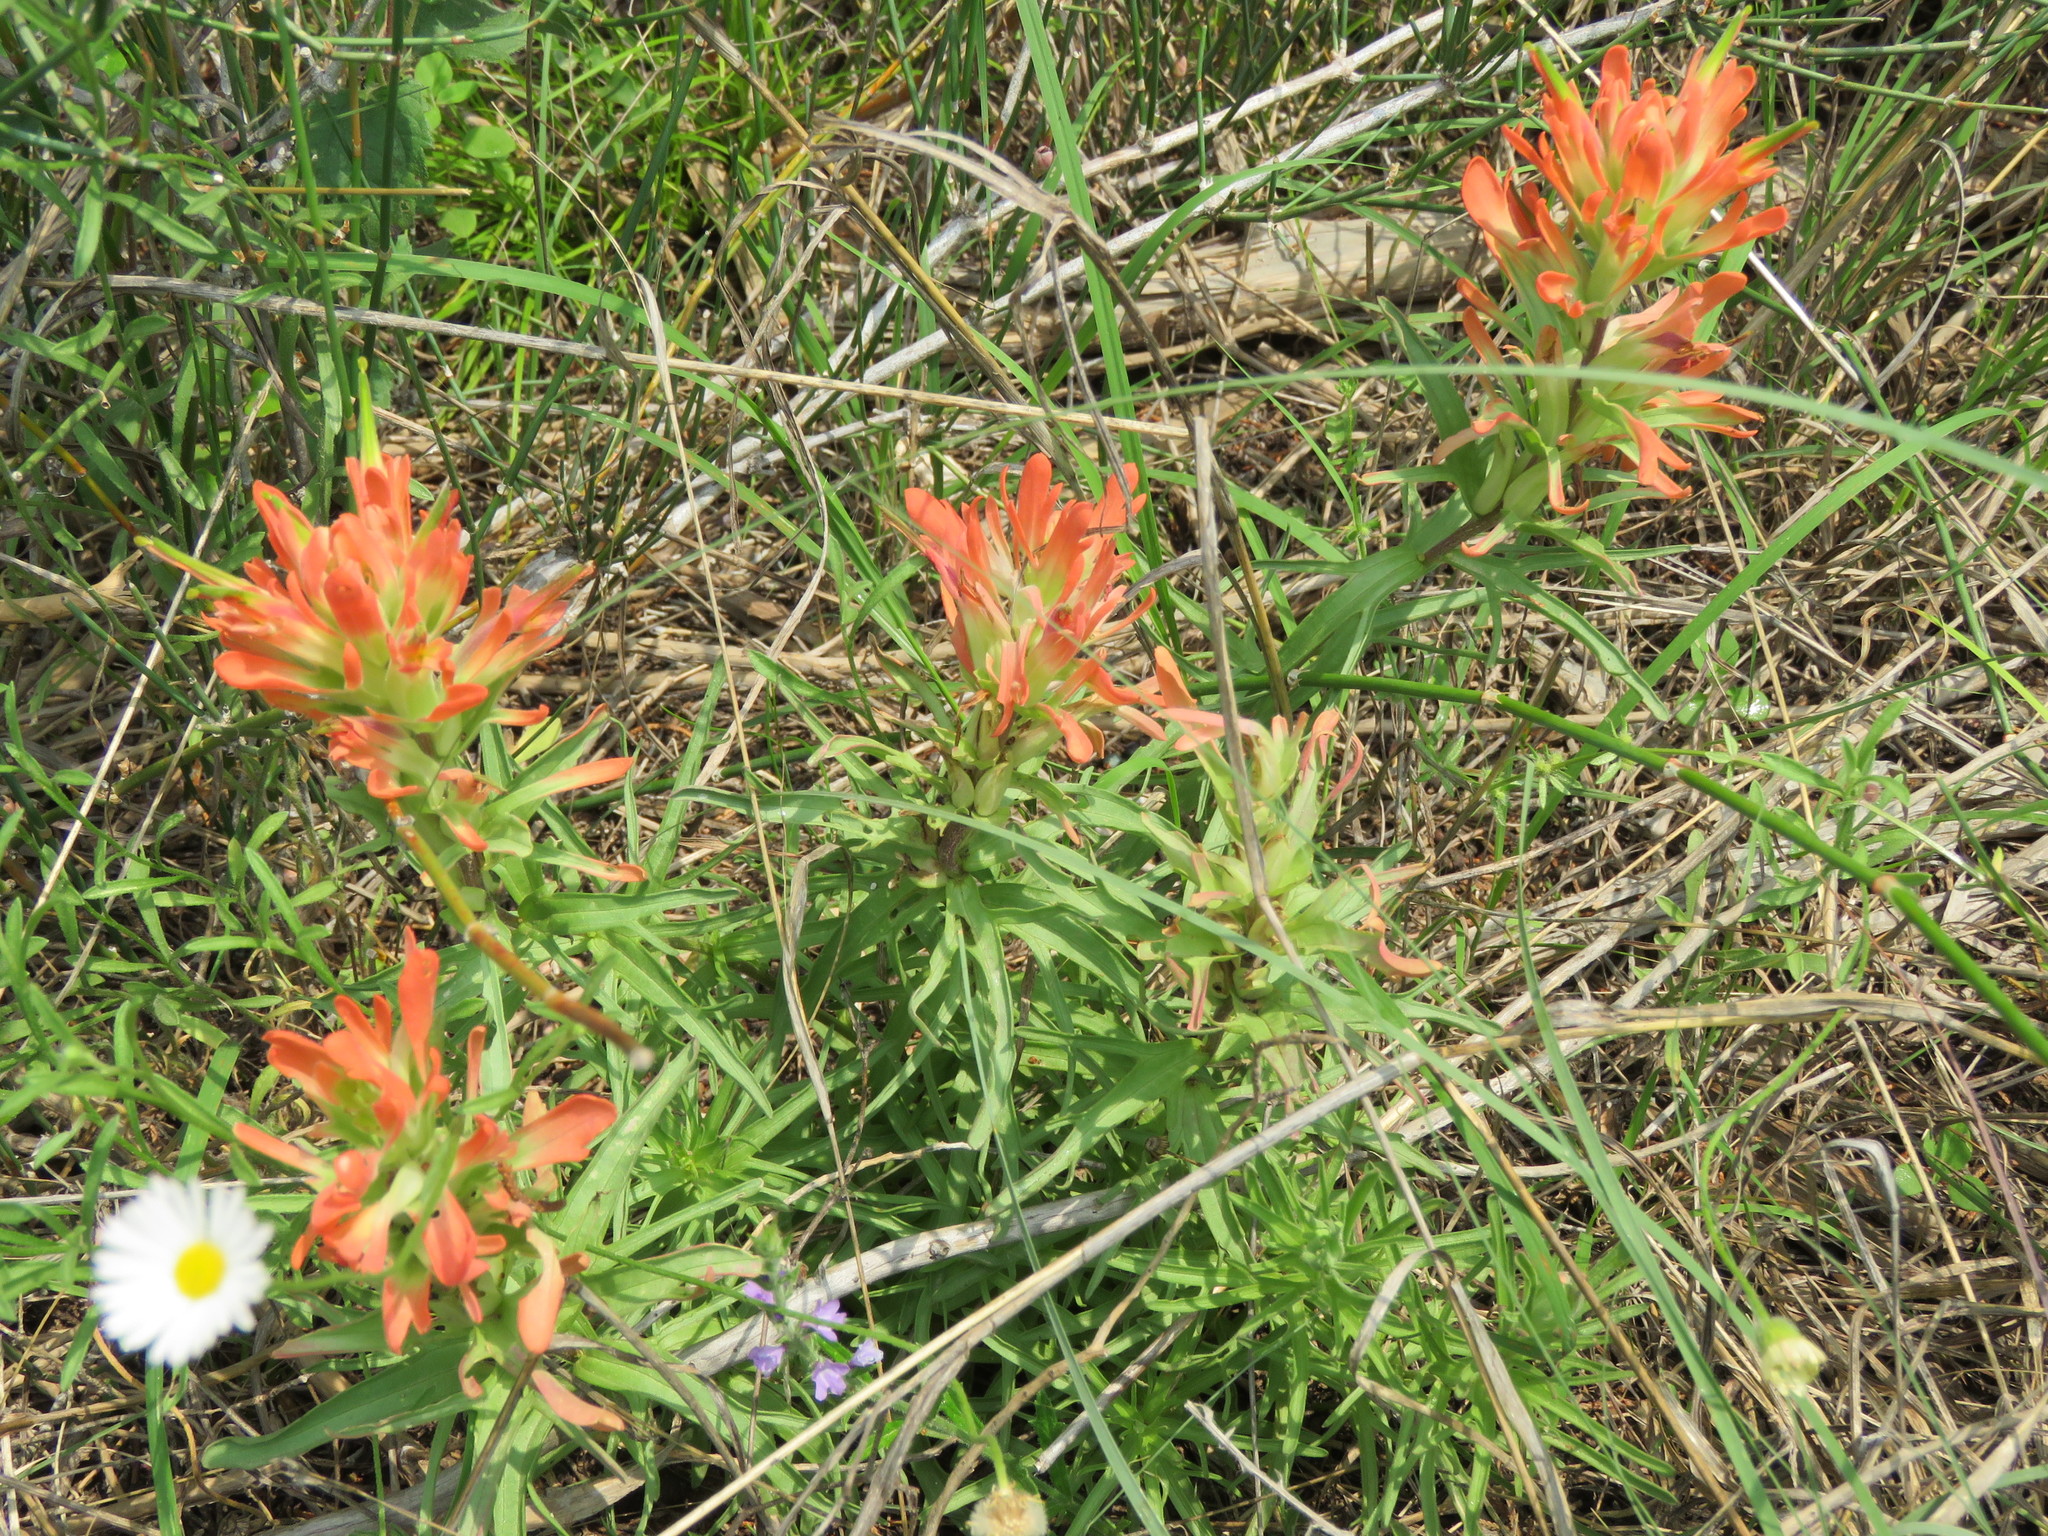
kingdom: Plantae
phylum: Tracheophyta
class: Magnoliopsida
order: Lamiales
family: Orobanchaceae
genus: Castilleja
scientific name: Castilleja lindheimeri
